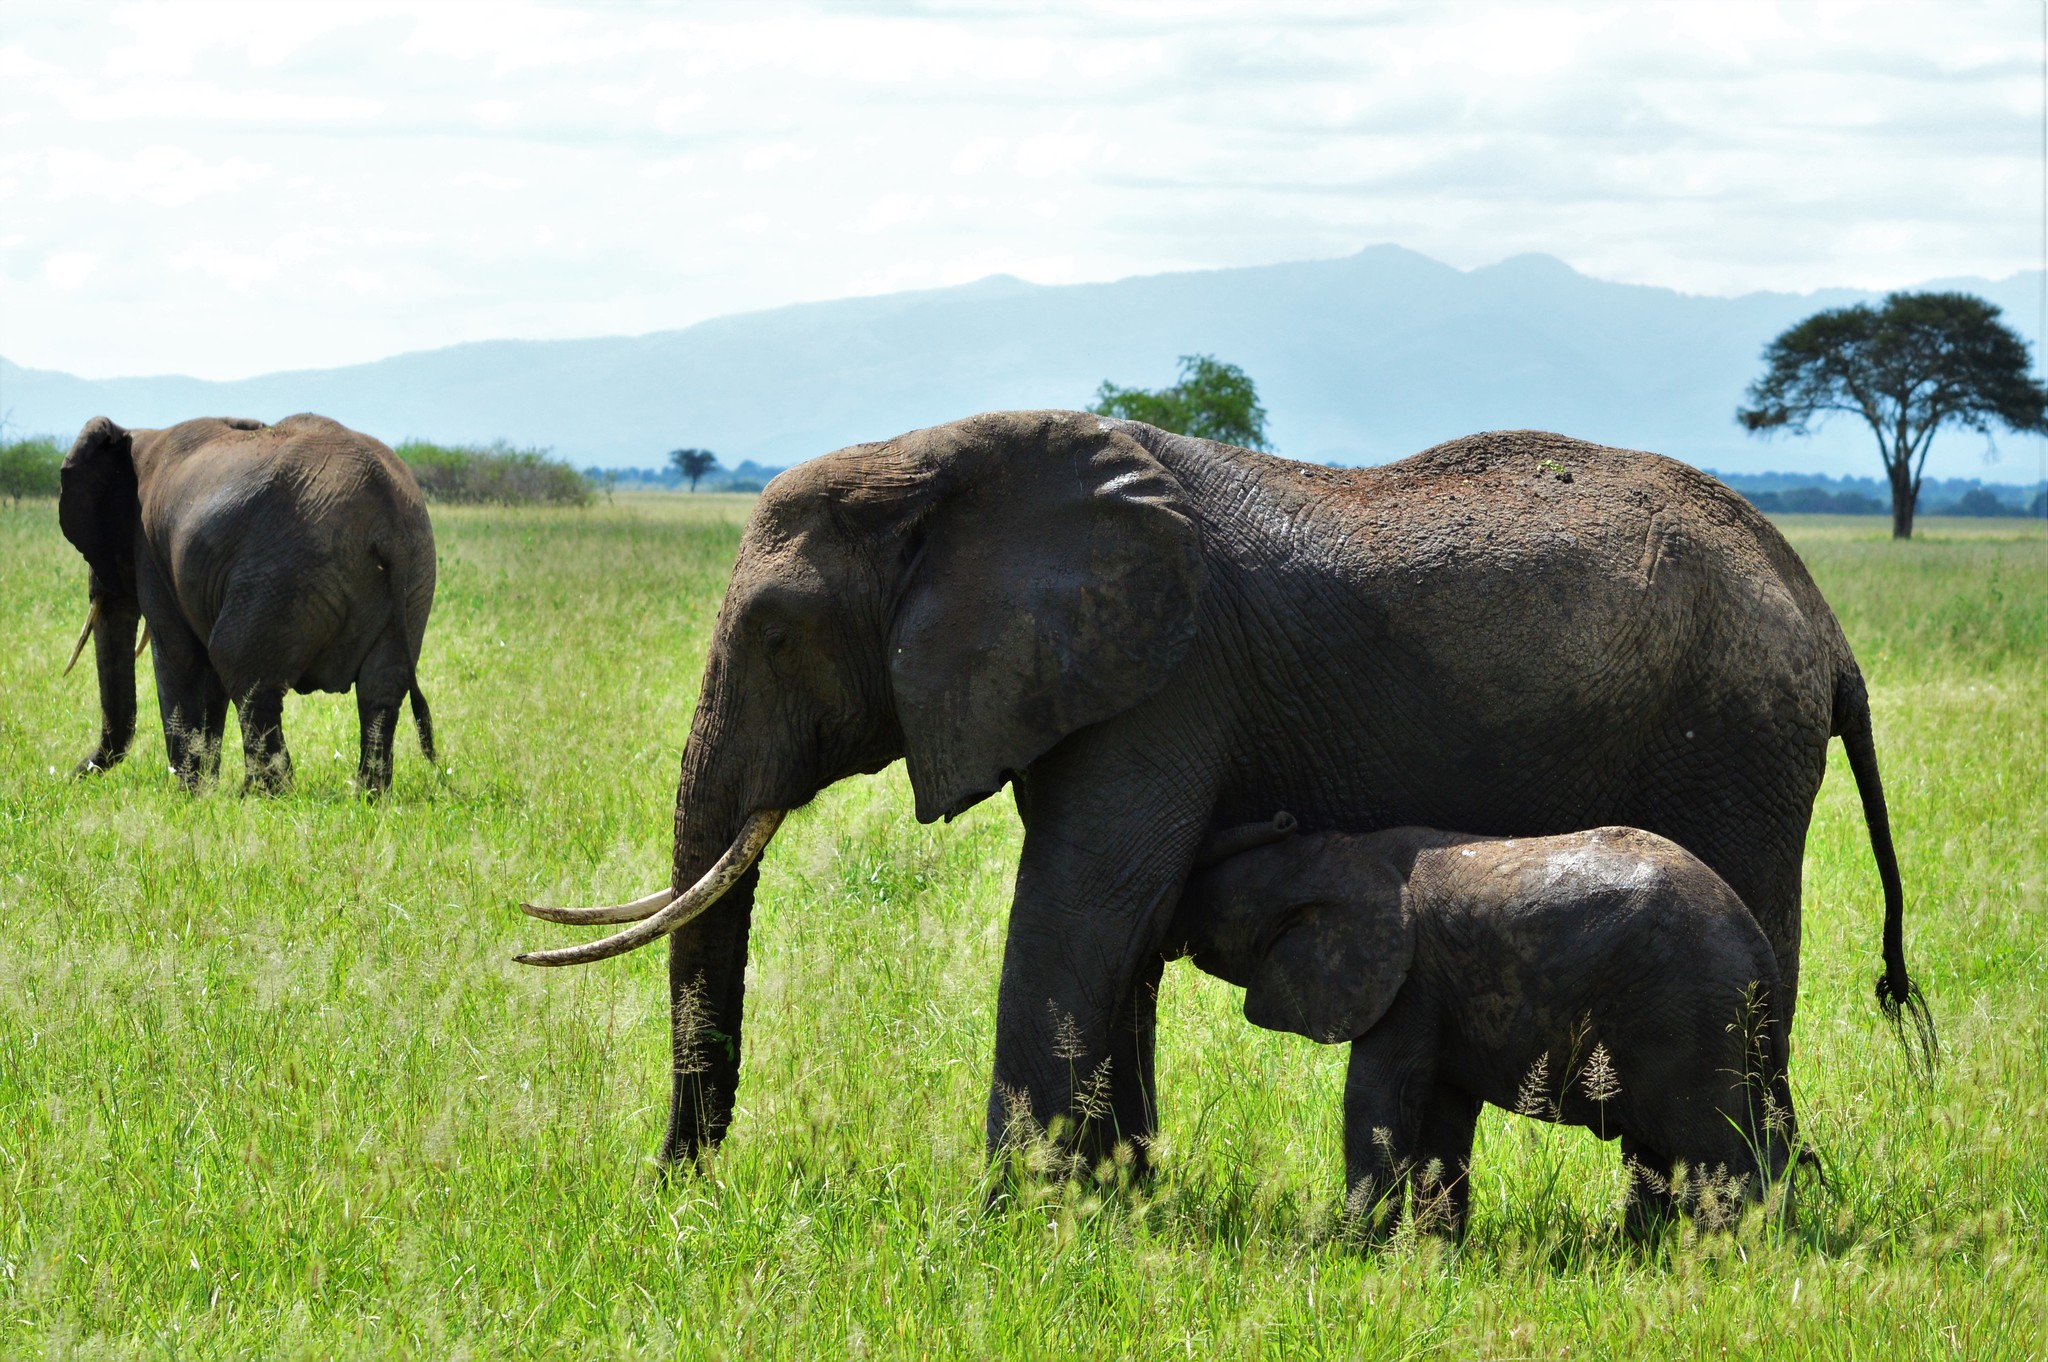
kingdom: Animalia
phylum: Chordata
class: Mammalia
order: Proboscidea
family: Elephantidae
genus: Loxodonta
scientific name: Loxodonta africana
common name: African elephant
